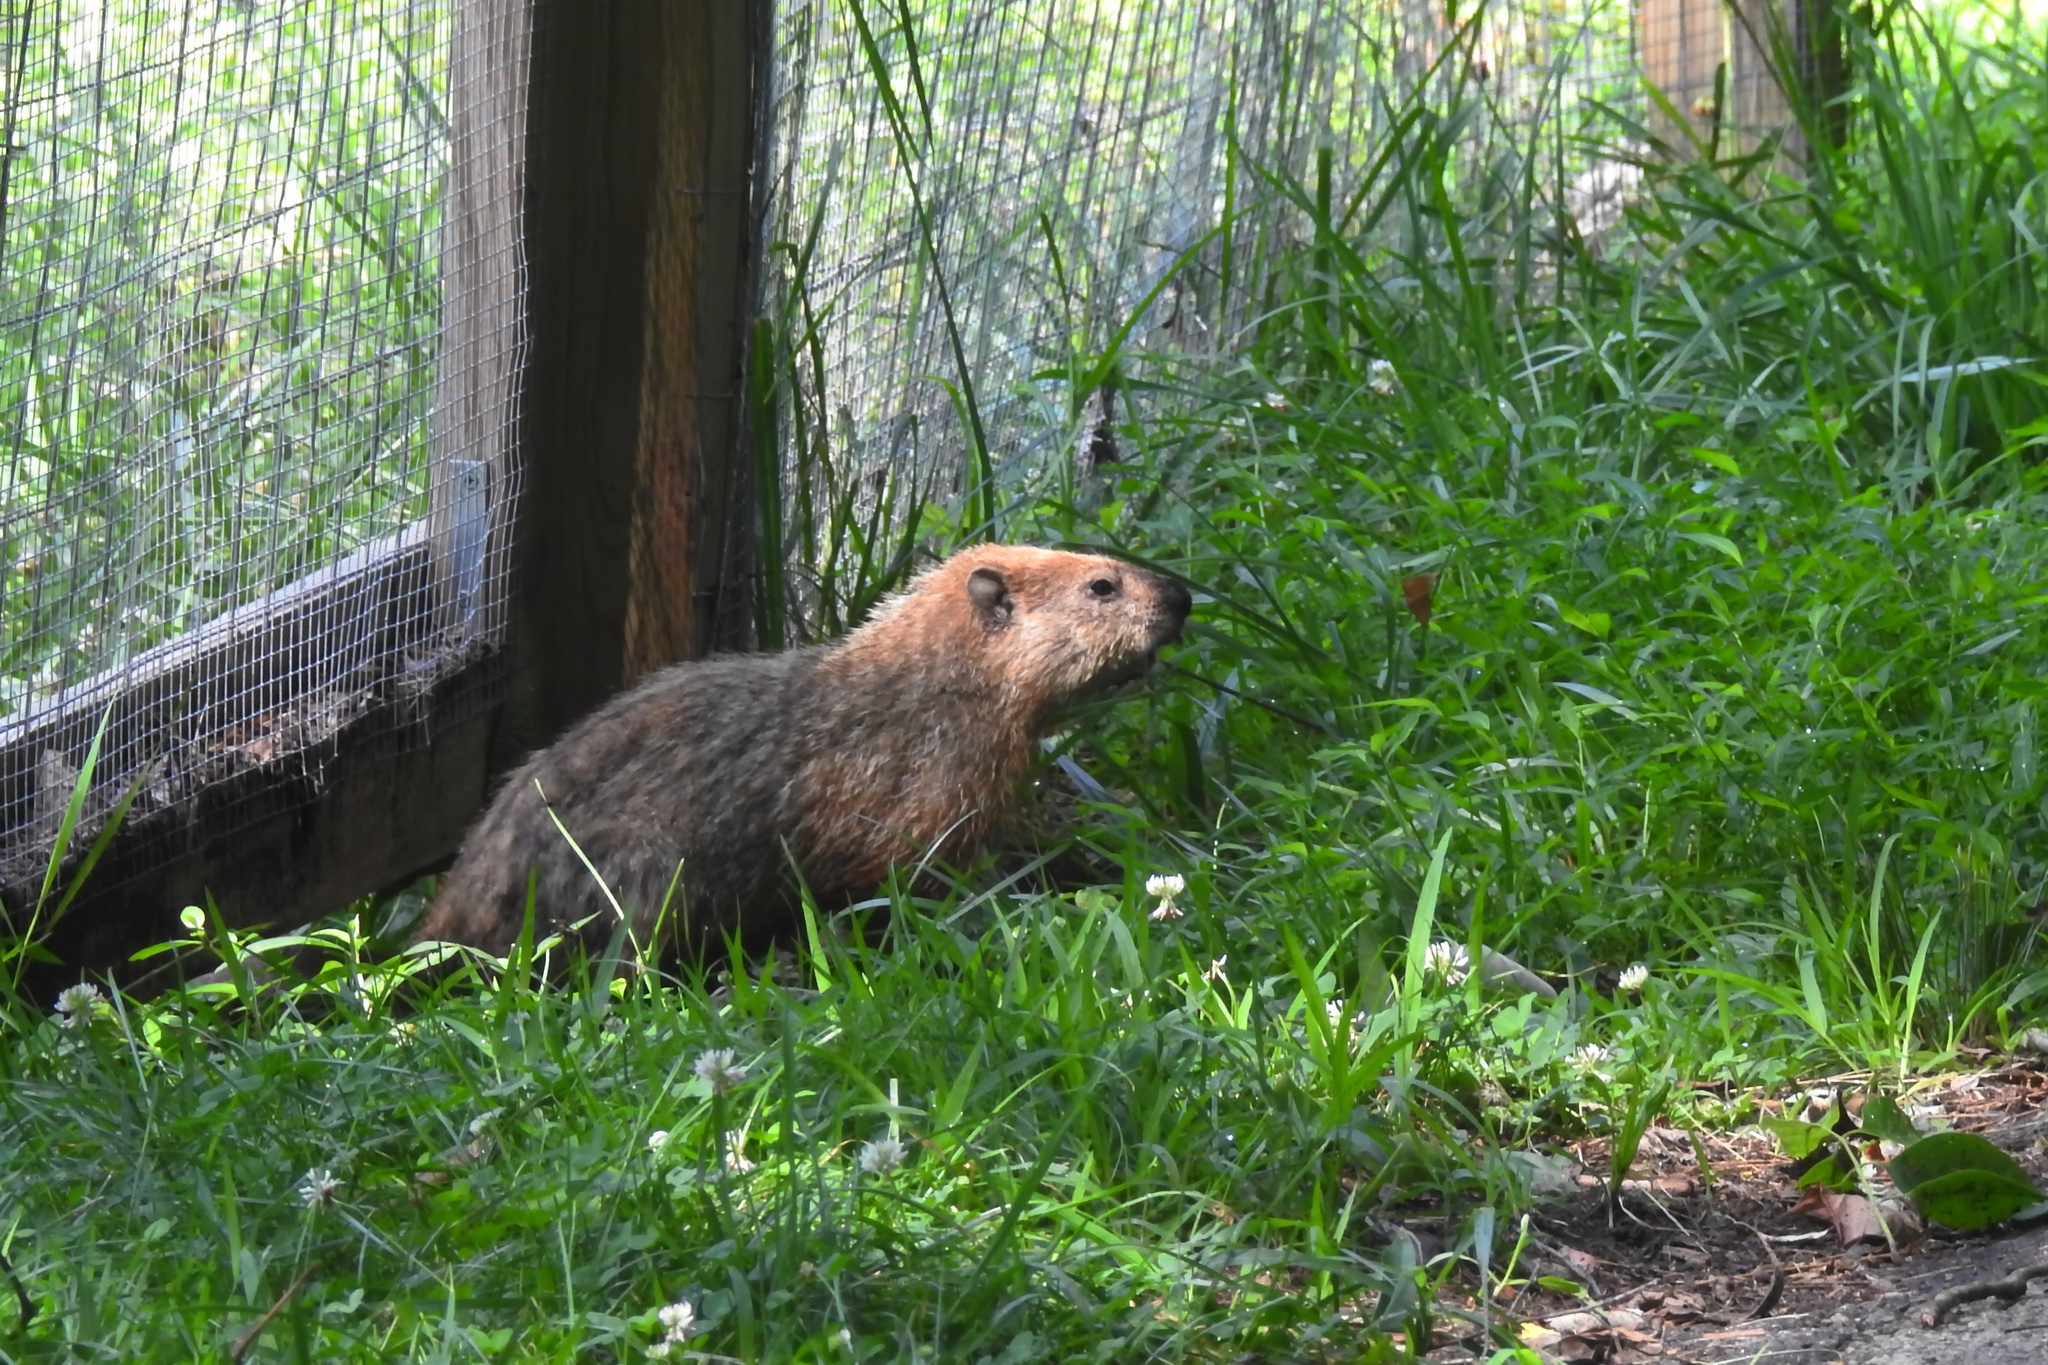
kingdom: Animalia
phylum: Chordata
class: Mammalia
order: Rodentia
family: Sciuridae
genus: Marmota
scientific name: Marmota monax
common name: Groundhog
